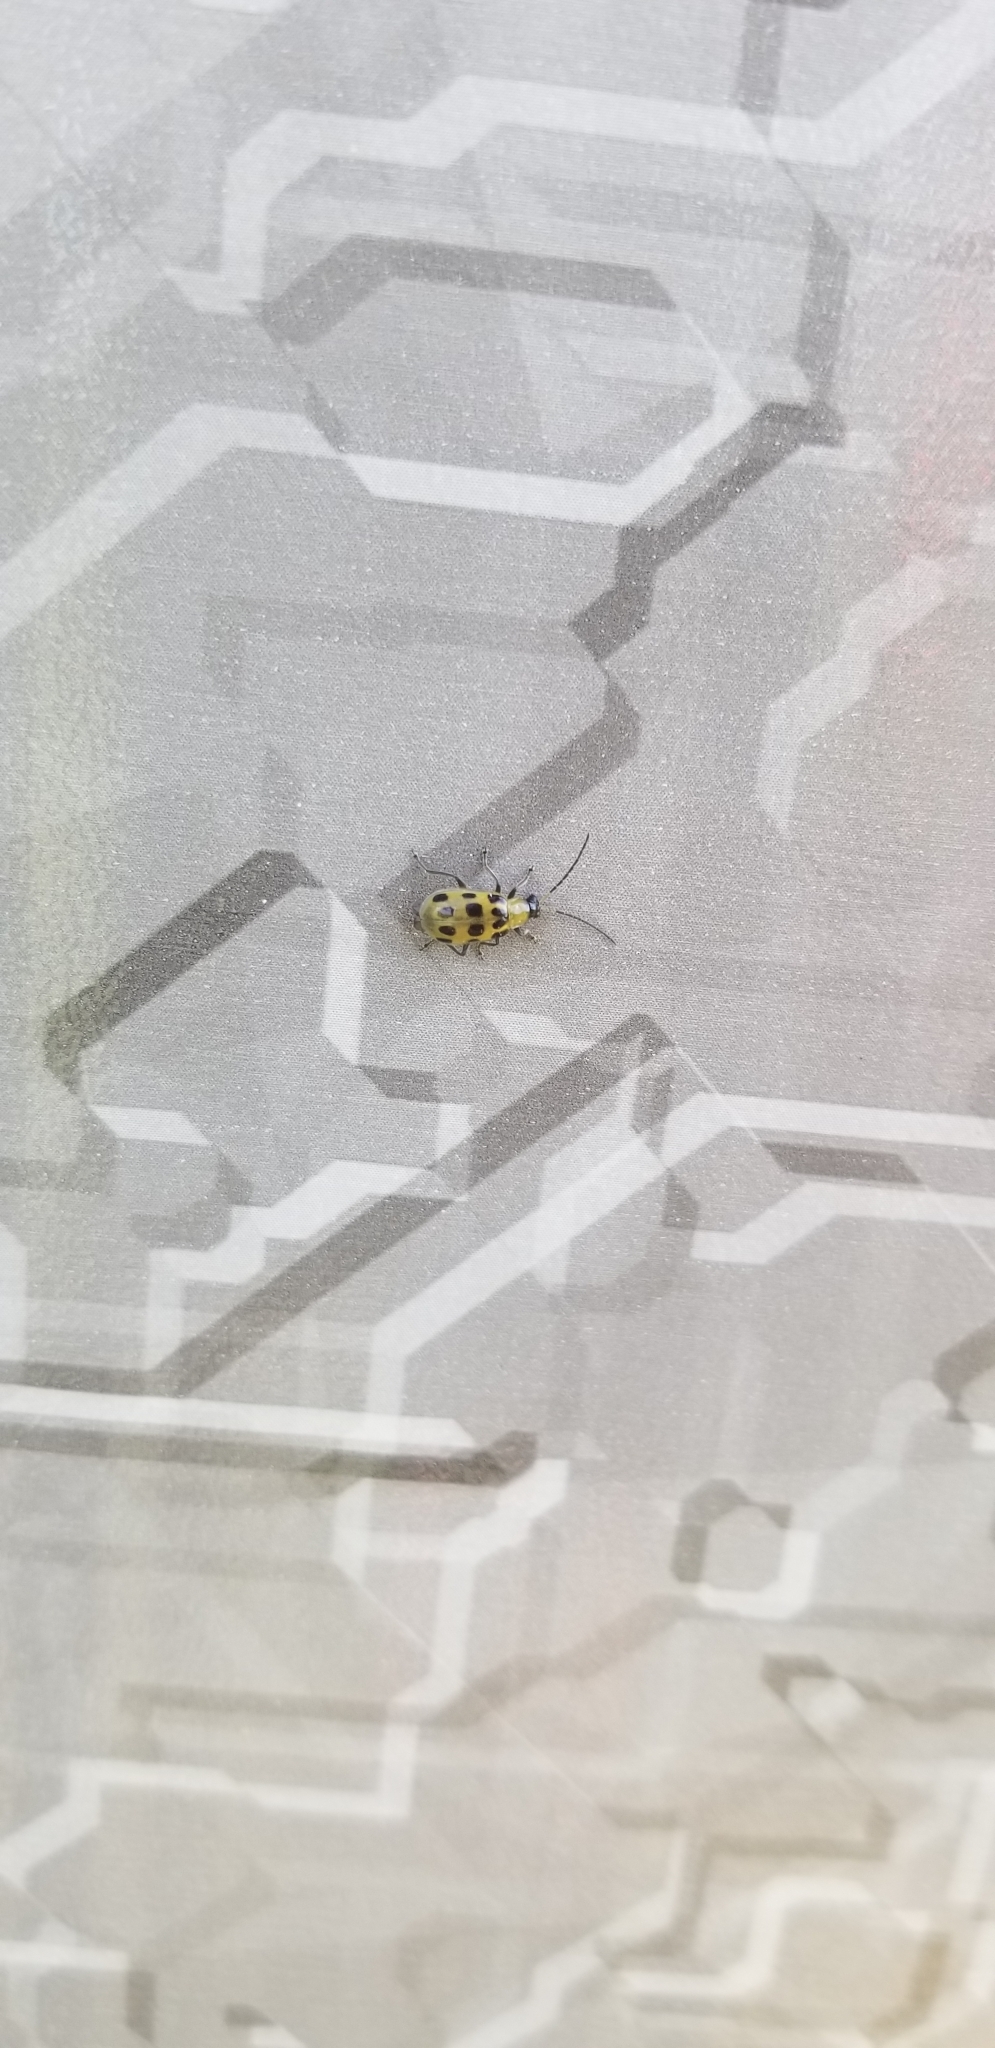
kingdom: Animalia
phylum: Arthropoda
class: Insecta
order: Coleoptera
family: Chrysomelidae
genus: Diabrotica
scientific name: Diabrotica undecimpunctata
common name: Spotted cucumber beetle
